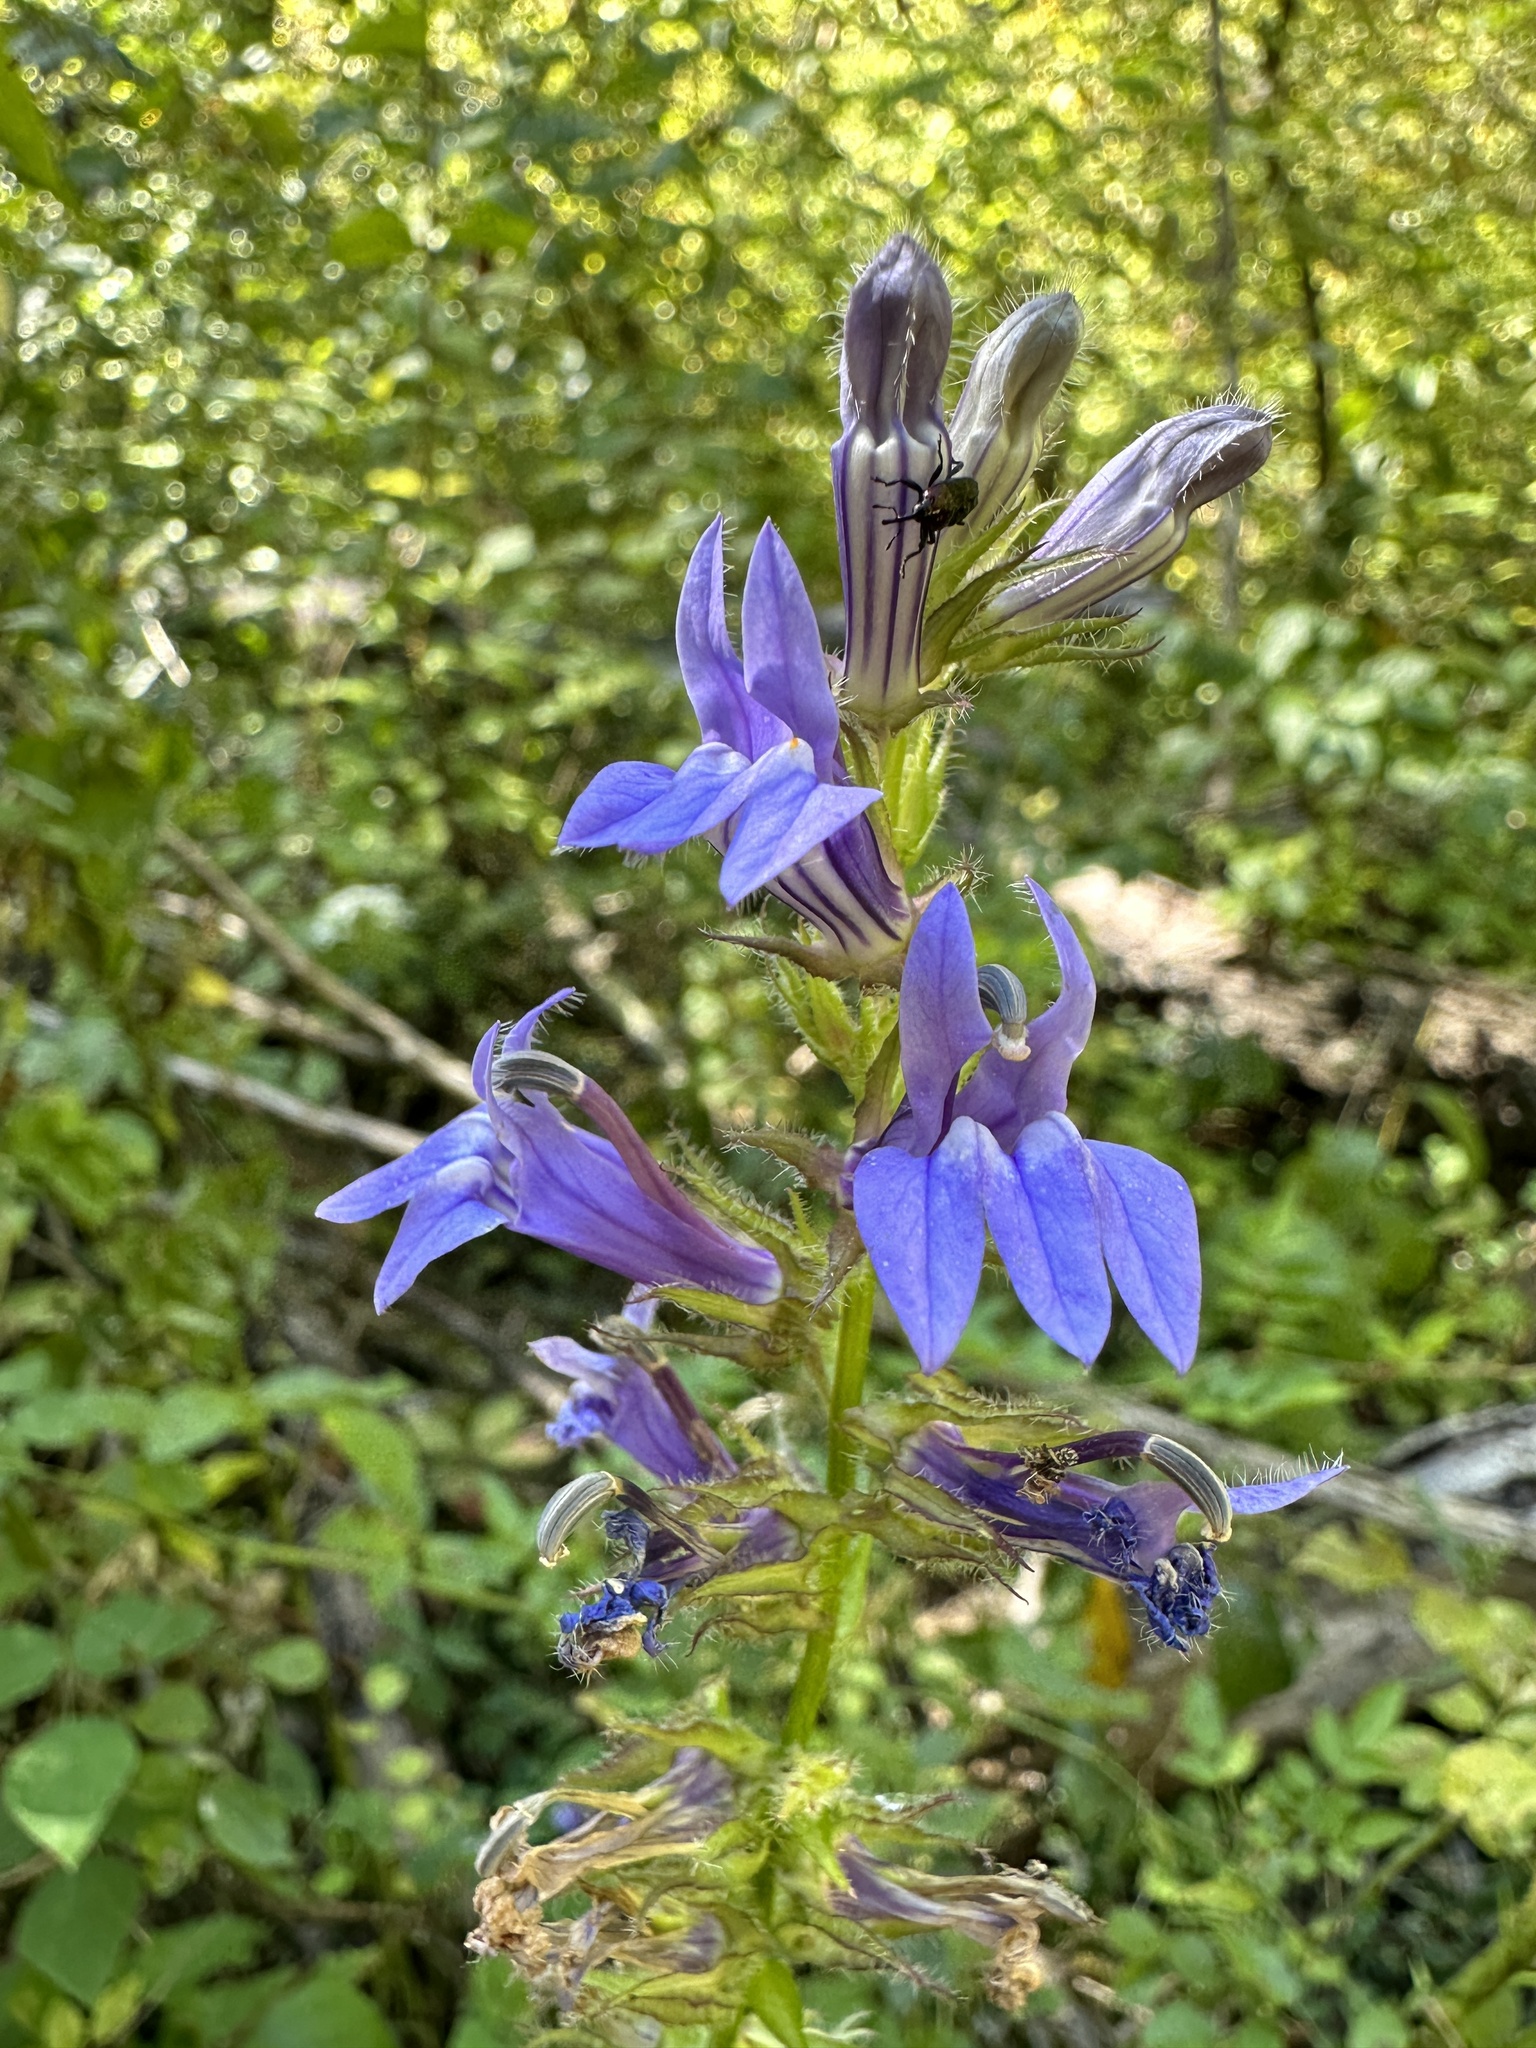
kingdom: Plantae
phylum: Tracheophyta
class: Magnoliopsida
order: Asterales
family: Campanulaceae
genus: Lobelia
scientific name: Lobelia siphilitica
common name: Great lobelia
